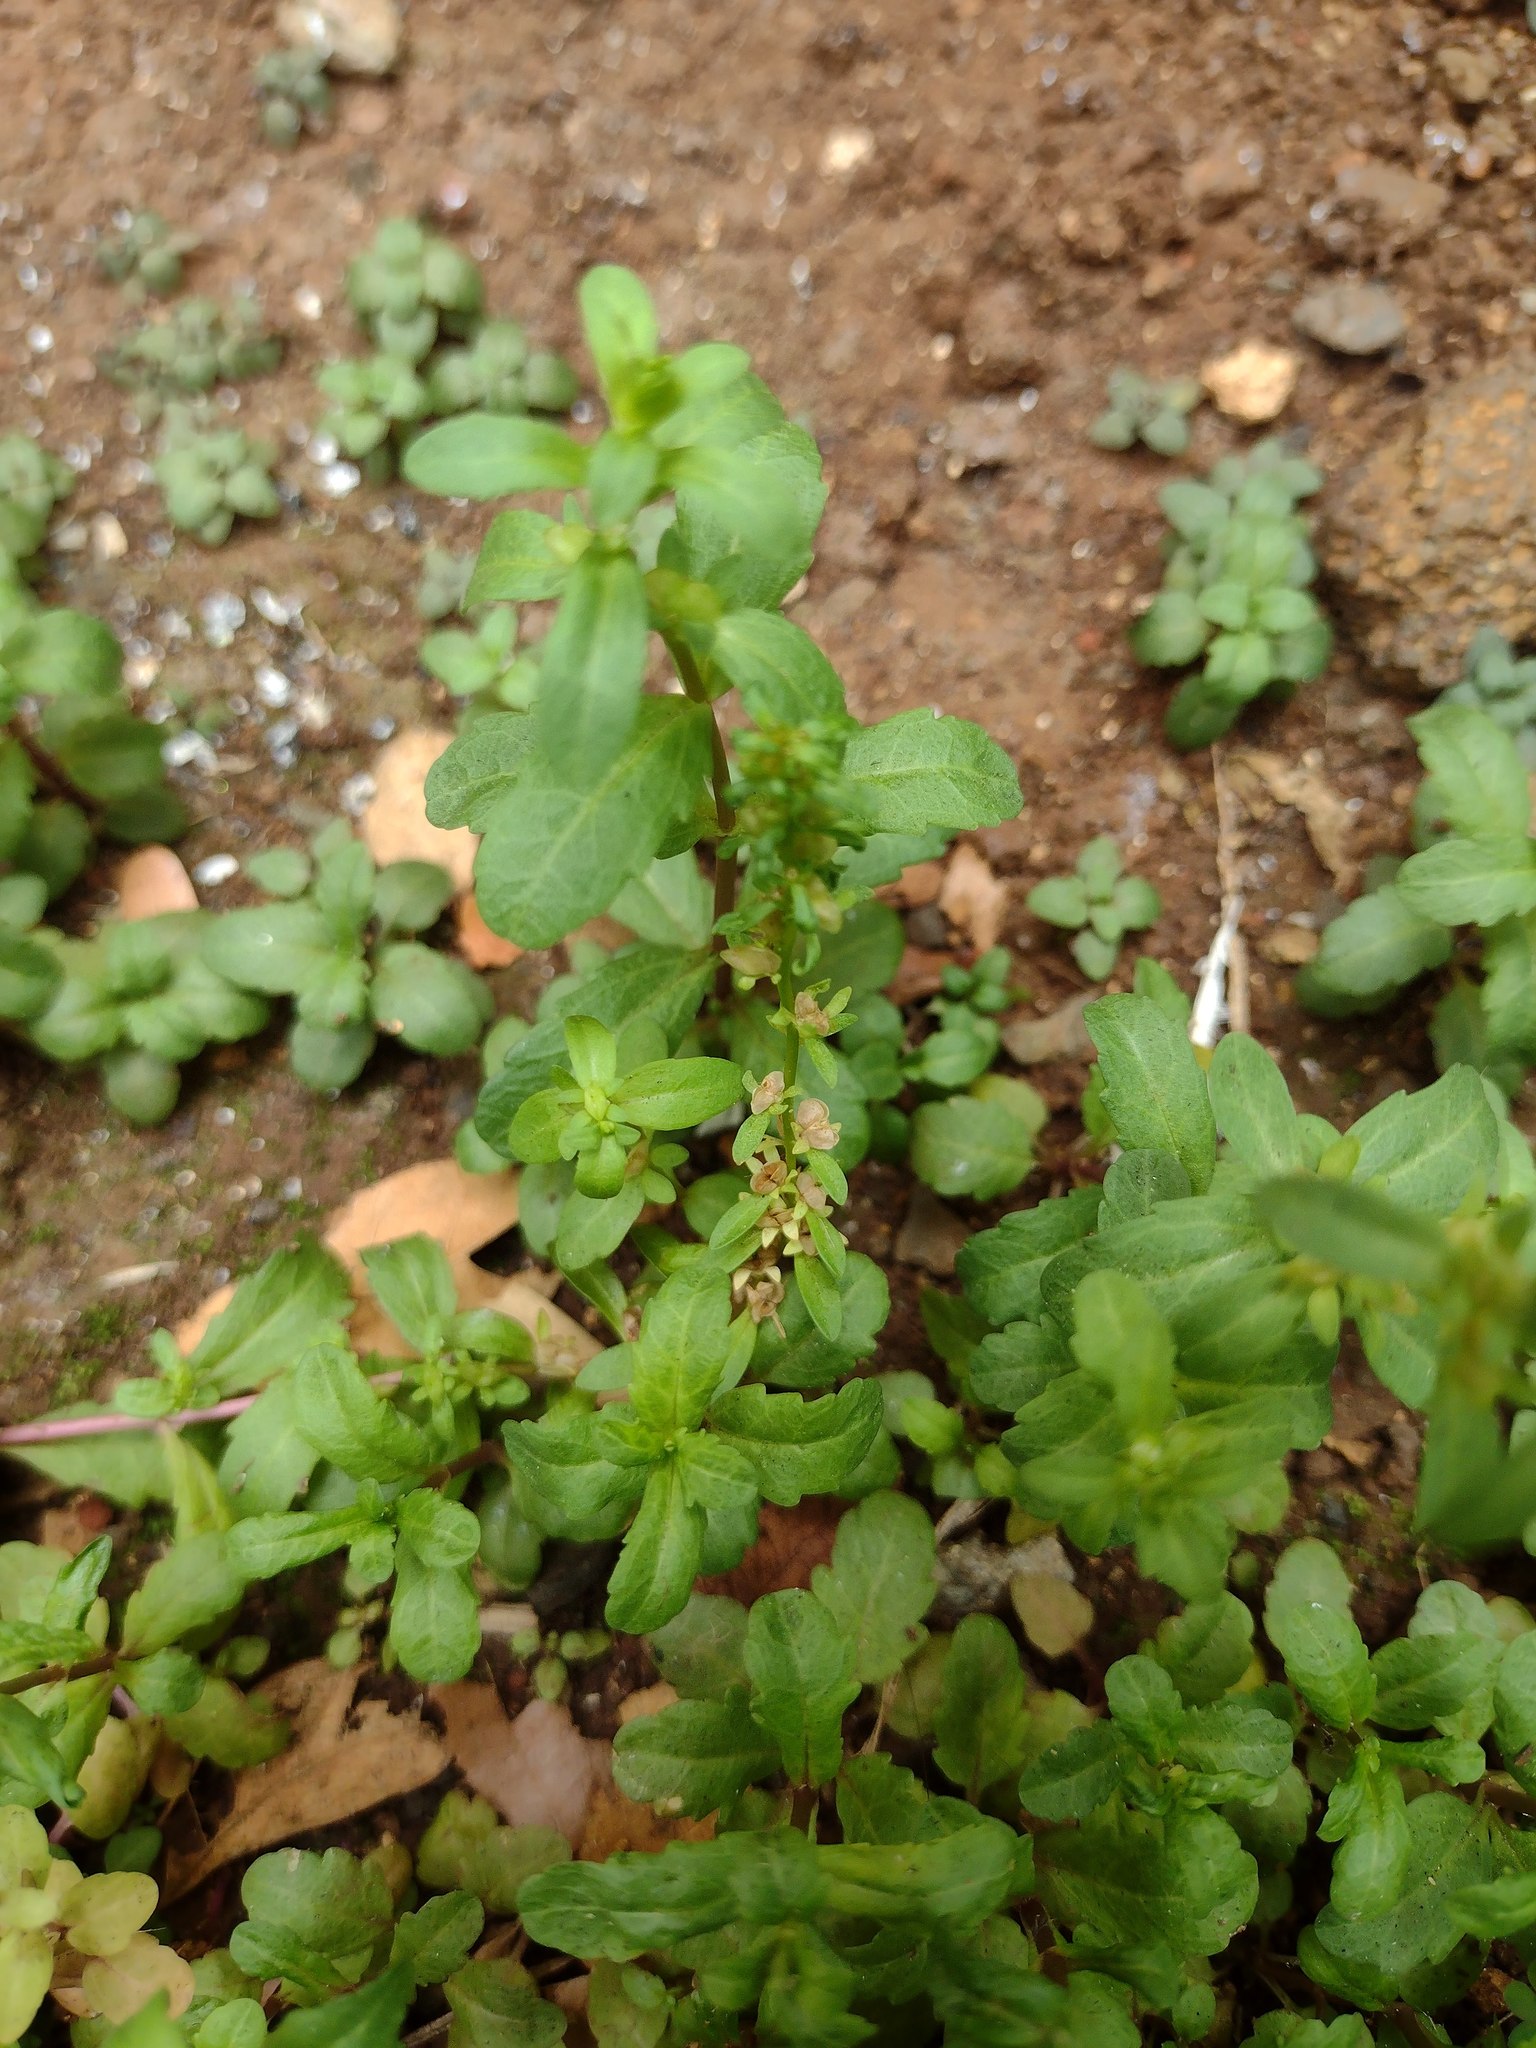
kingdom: Plantae
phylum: Tracheophyta
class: Magnoliopsida
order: Lamiales
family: Plantaginaceae
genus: Veronica
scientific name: Veronica peregrina
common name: Neckweed
